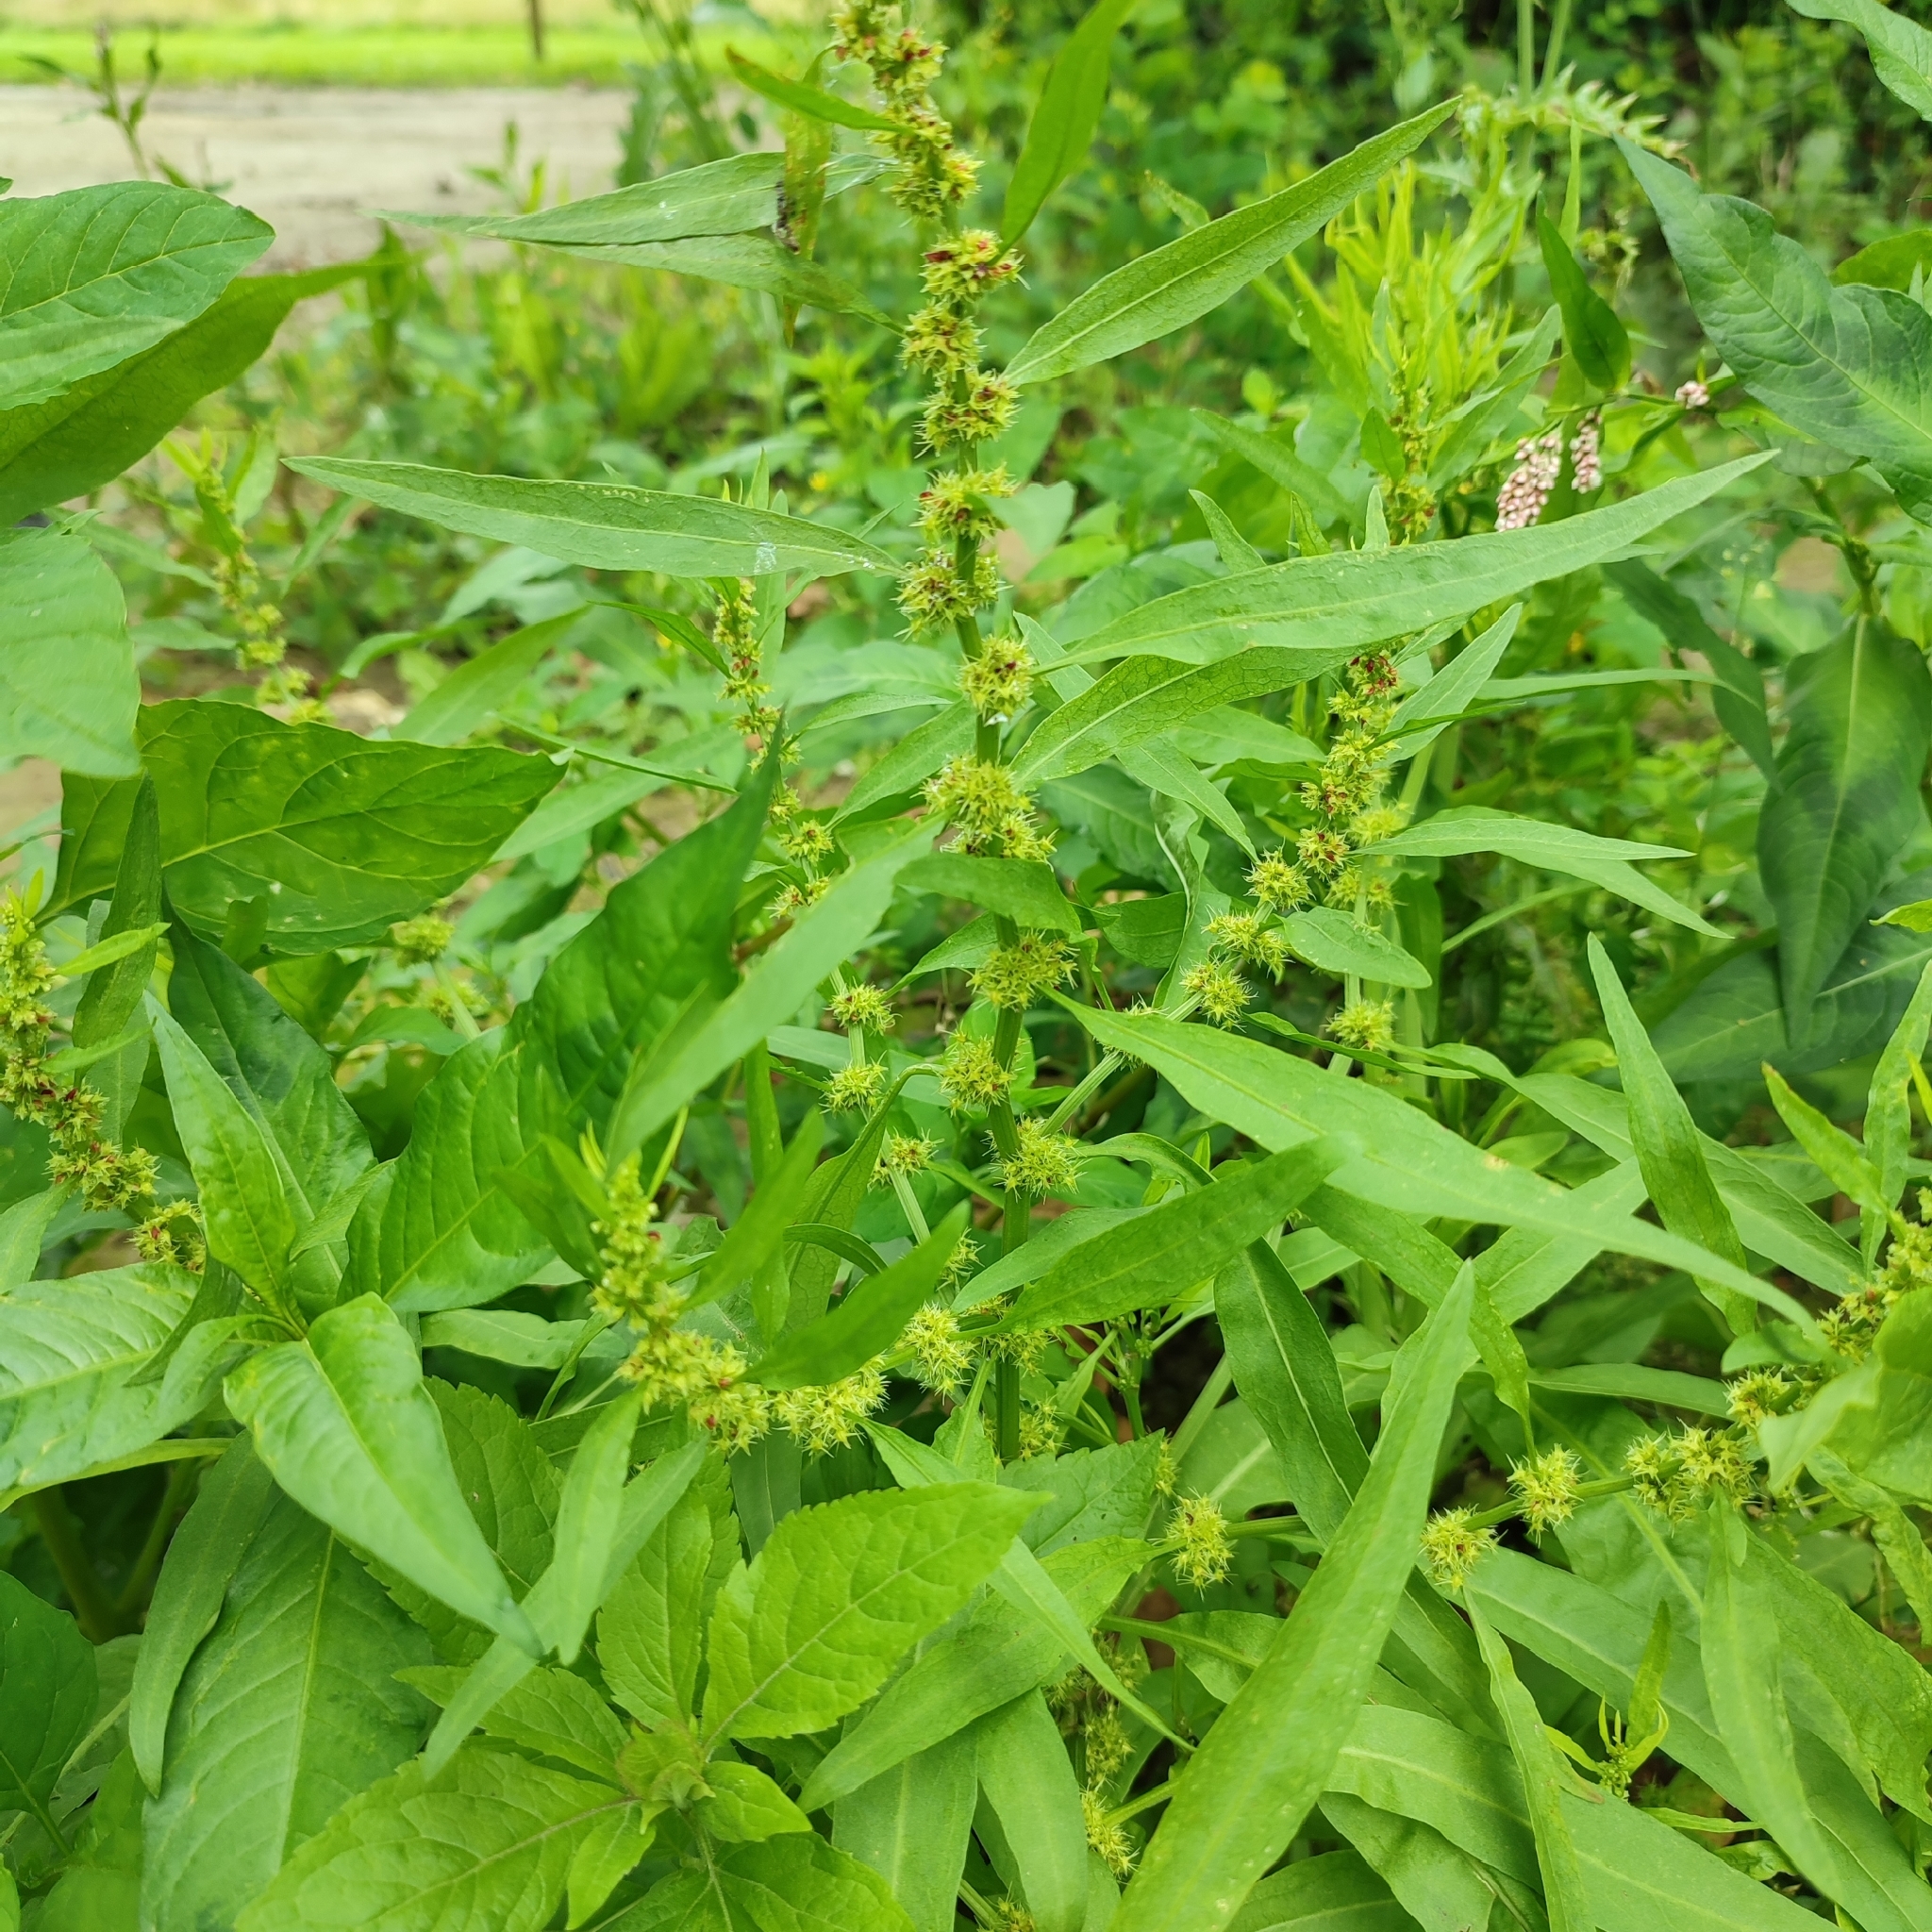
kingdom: Plantae
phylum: Tracheophyta
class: Magnoliopsida
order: Caryophyllales
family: Polygonaceae
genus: Rumex
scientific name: Rumex maritimus
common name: Golden dock
